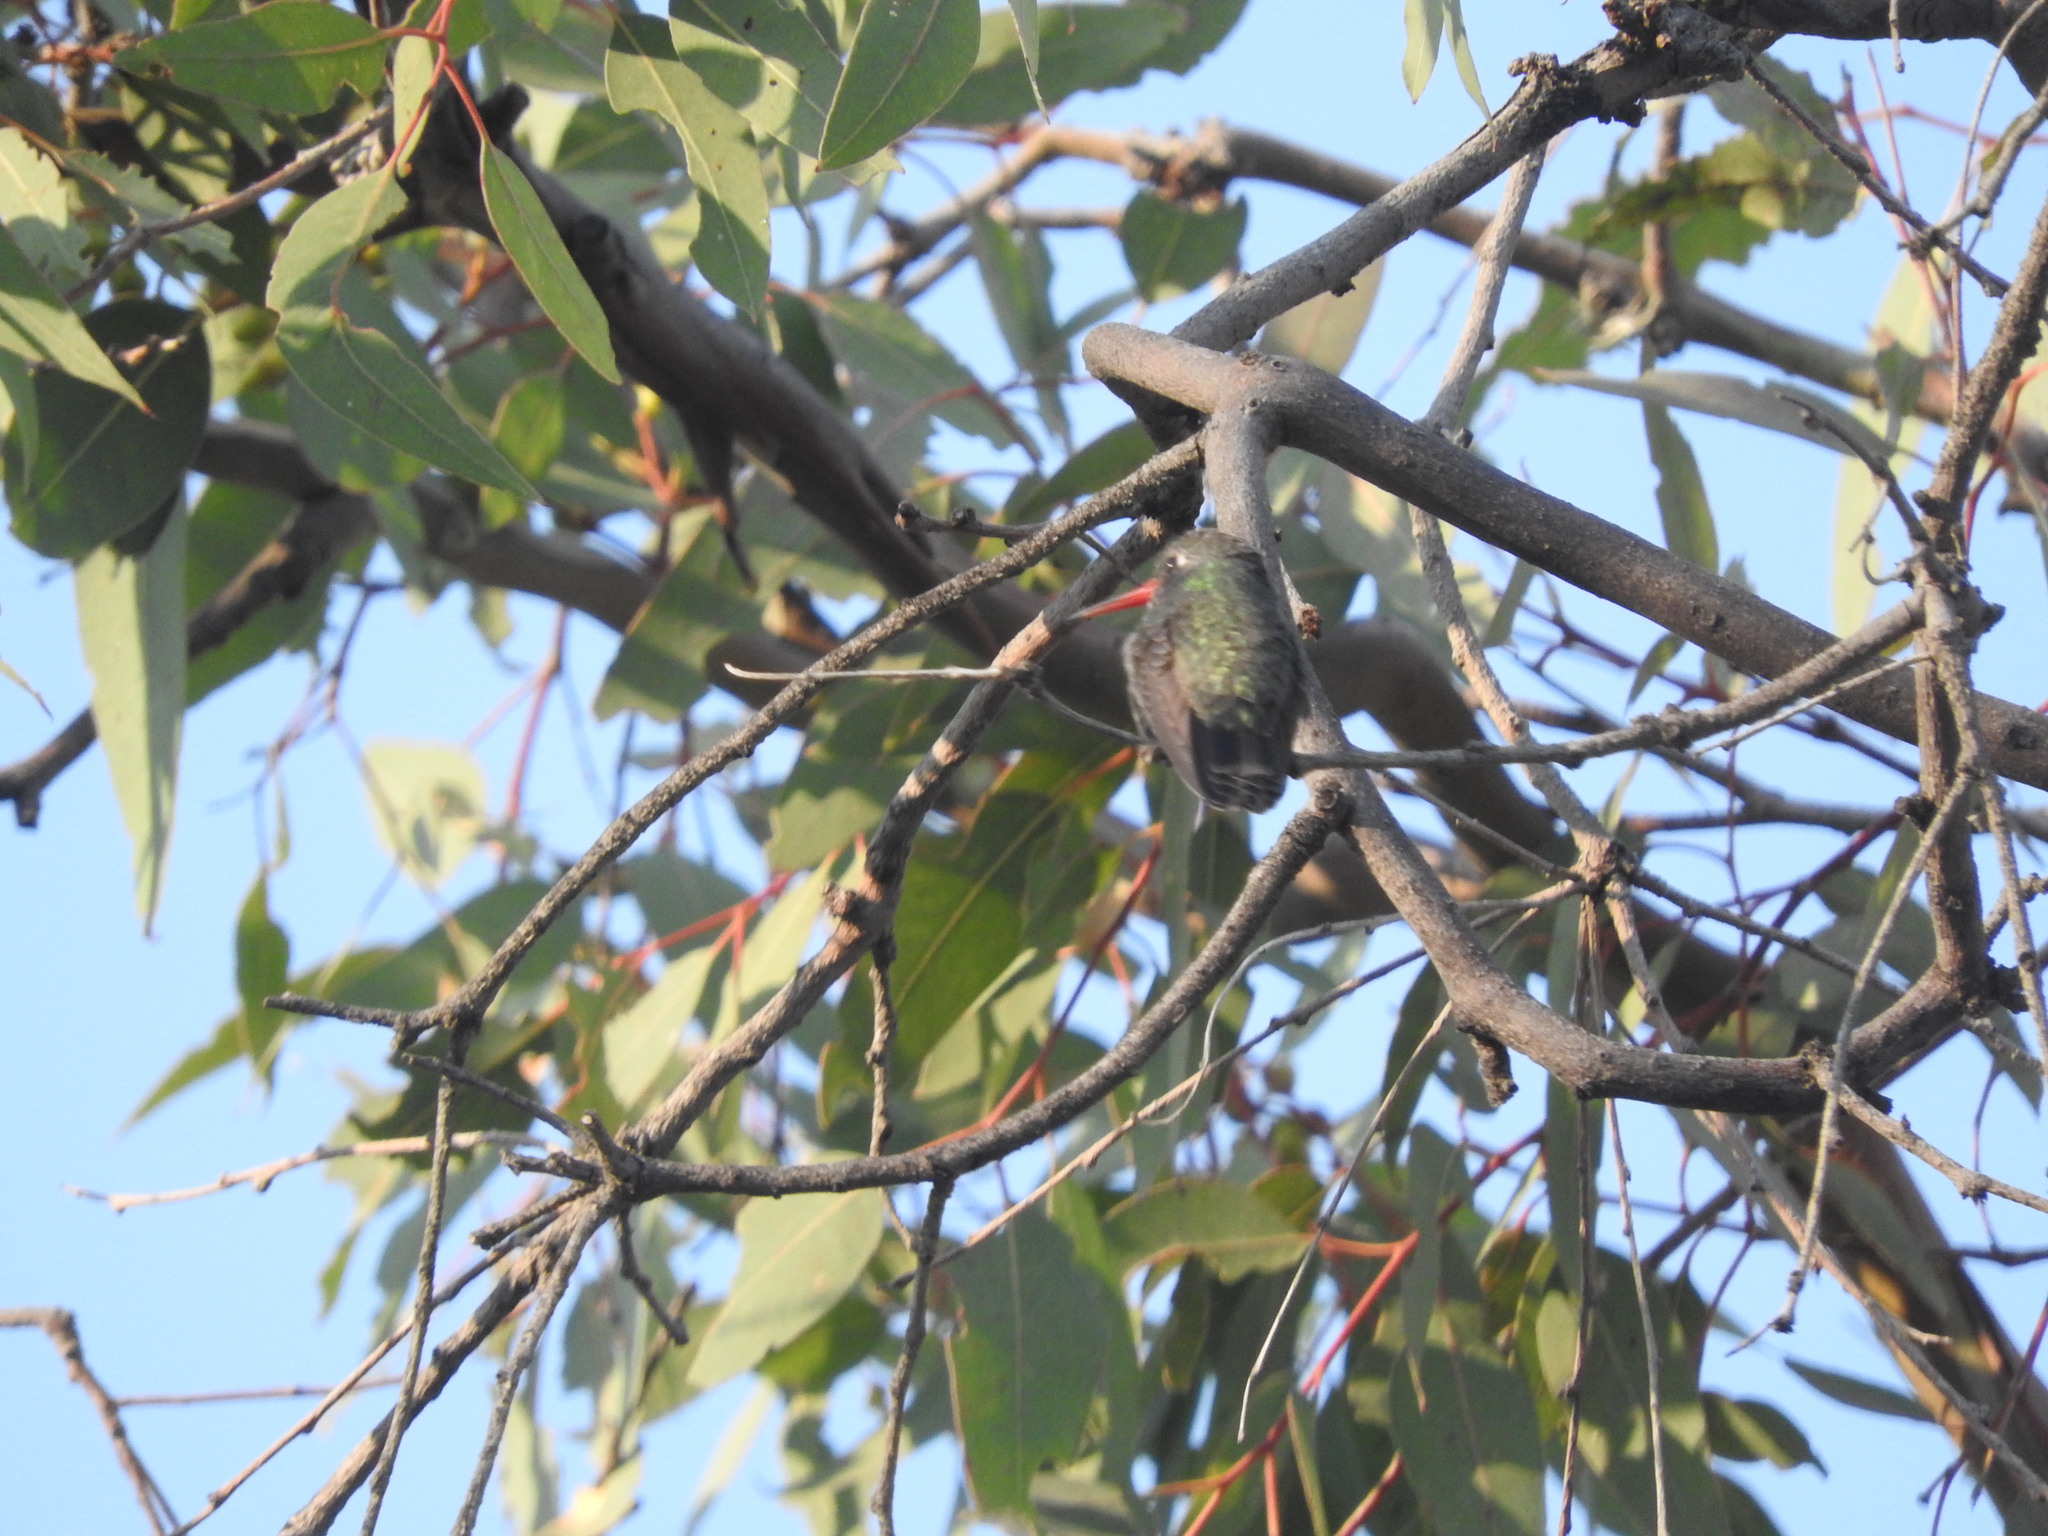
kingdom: Animalia
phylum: Chordata
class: Aves
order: Apodiformes
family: Trochilidae
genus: Cynanthus
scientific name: Cynanthus latirostris
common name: Broad-billed hummingbird
